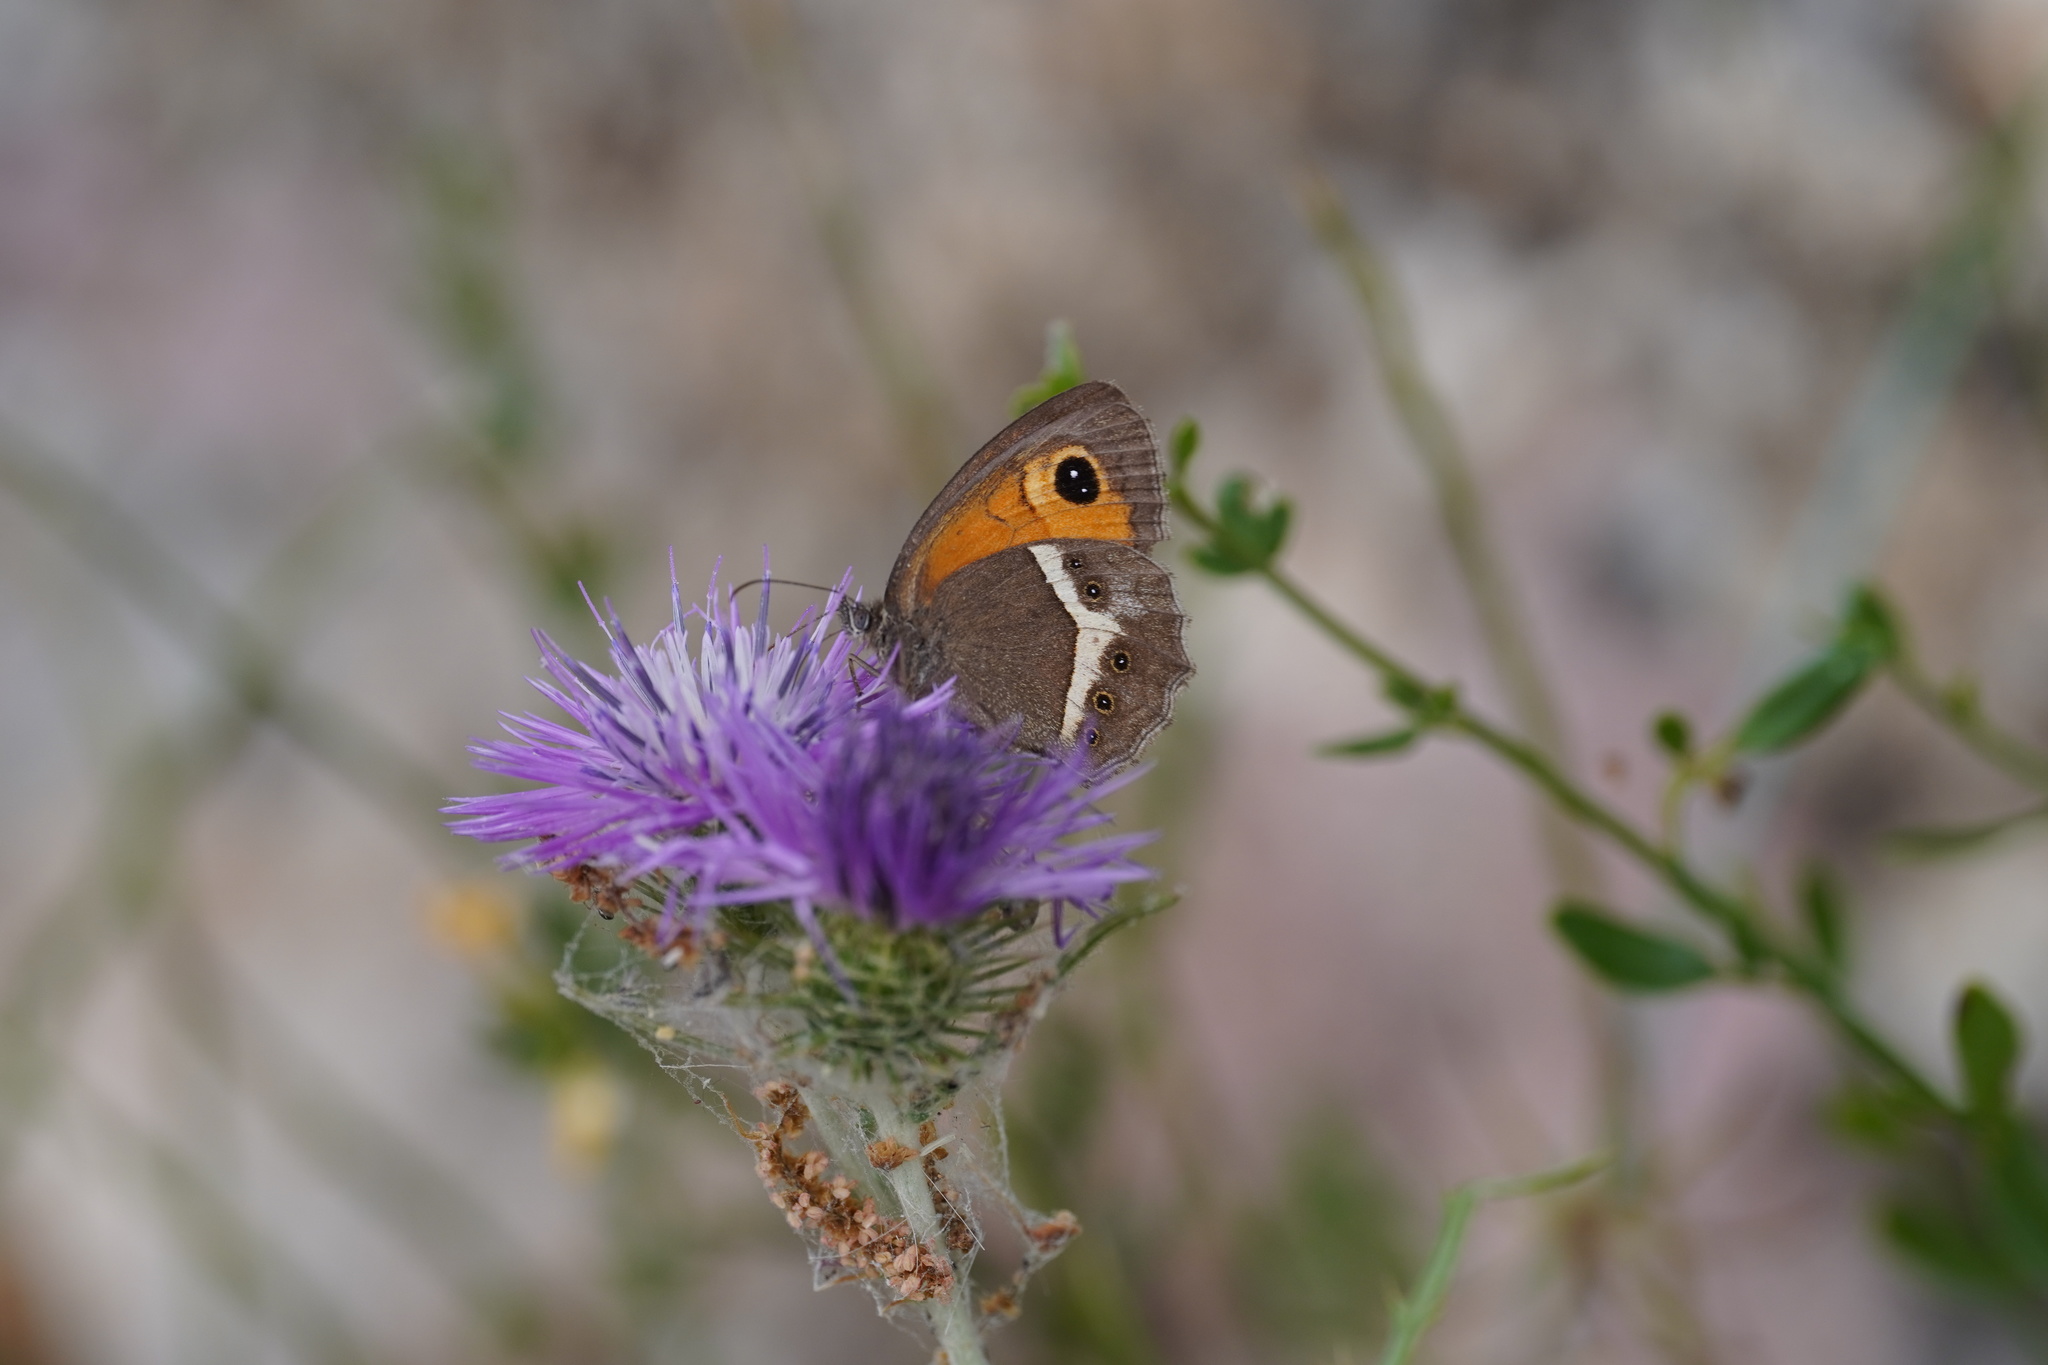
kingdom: Animalia
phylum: Arthropoda
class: Insecta
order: Lepidoptera
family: Nymphalidae
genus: Pyronia
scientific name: Pyronia bathseba
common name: Spanish gatekeeper
